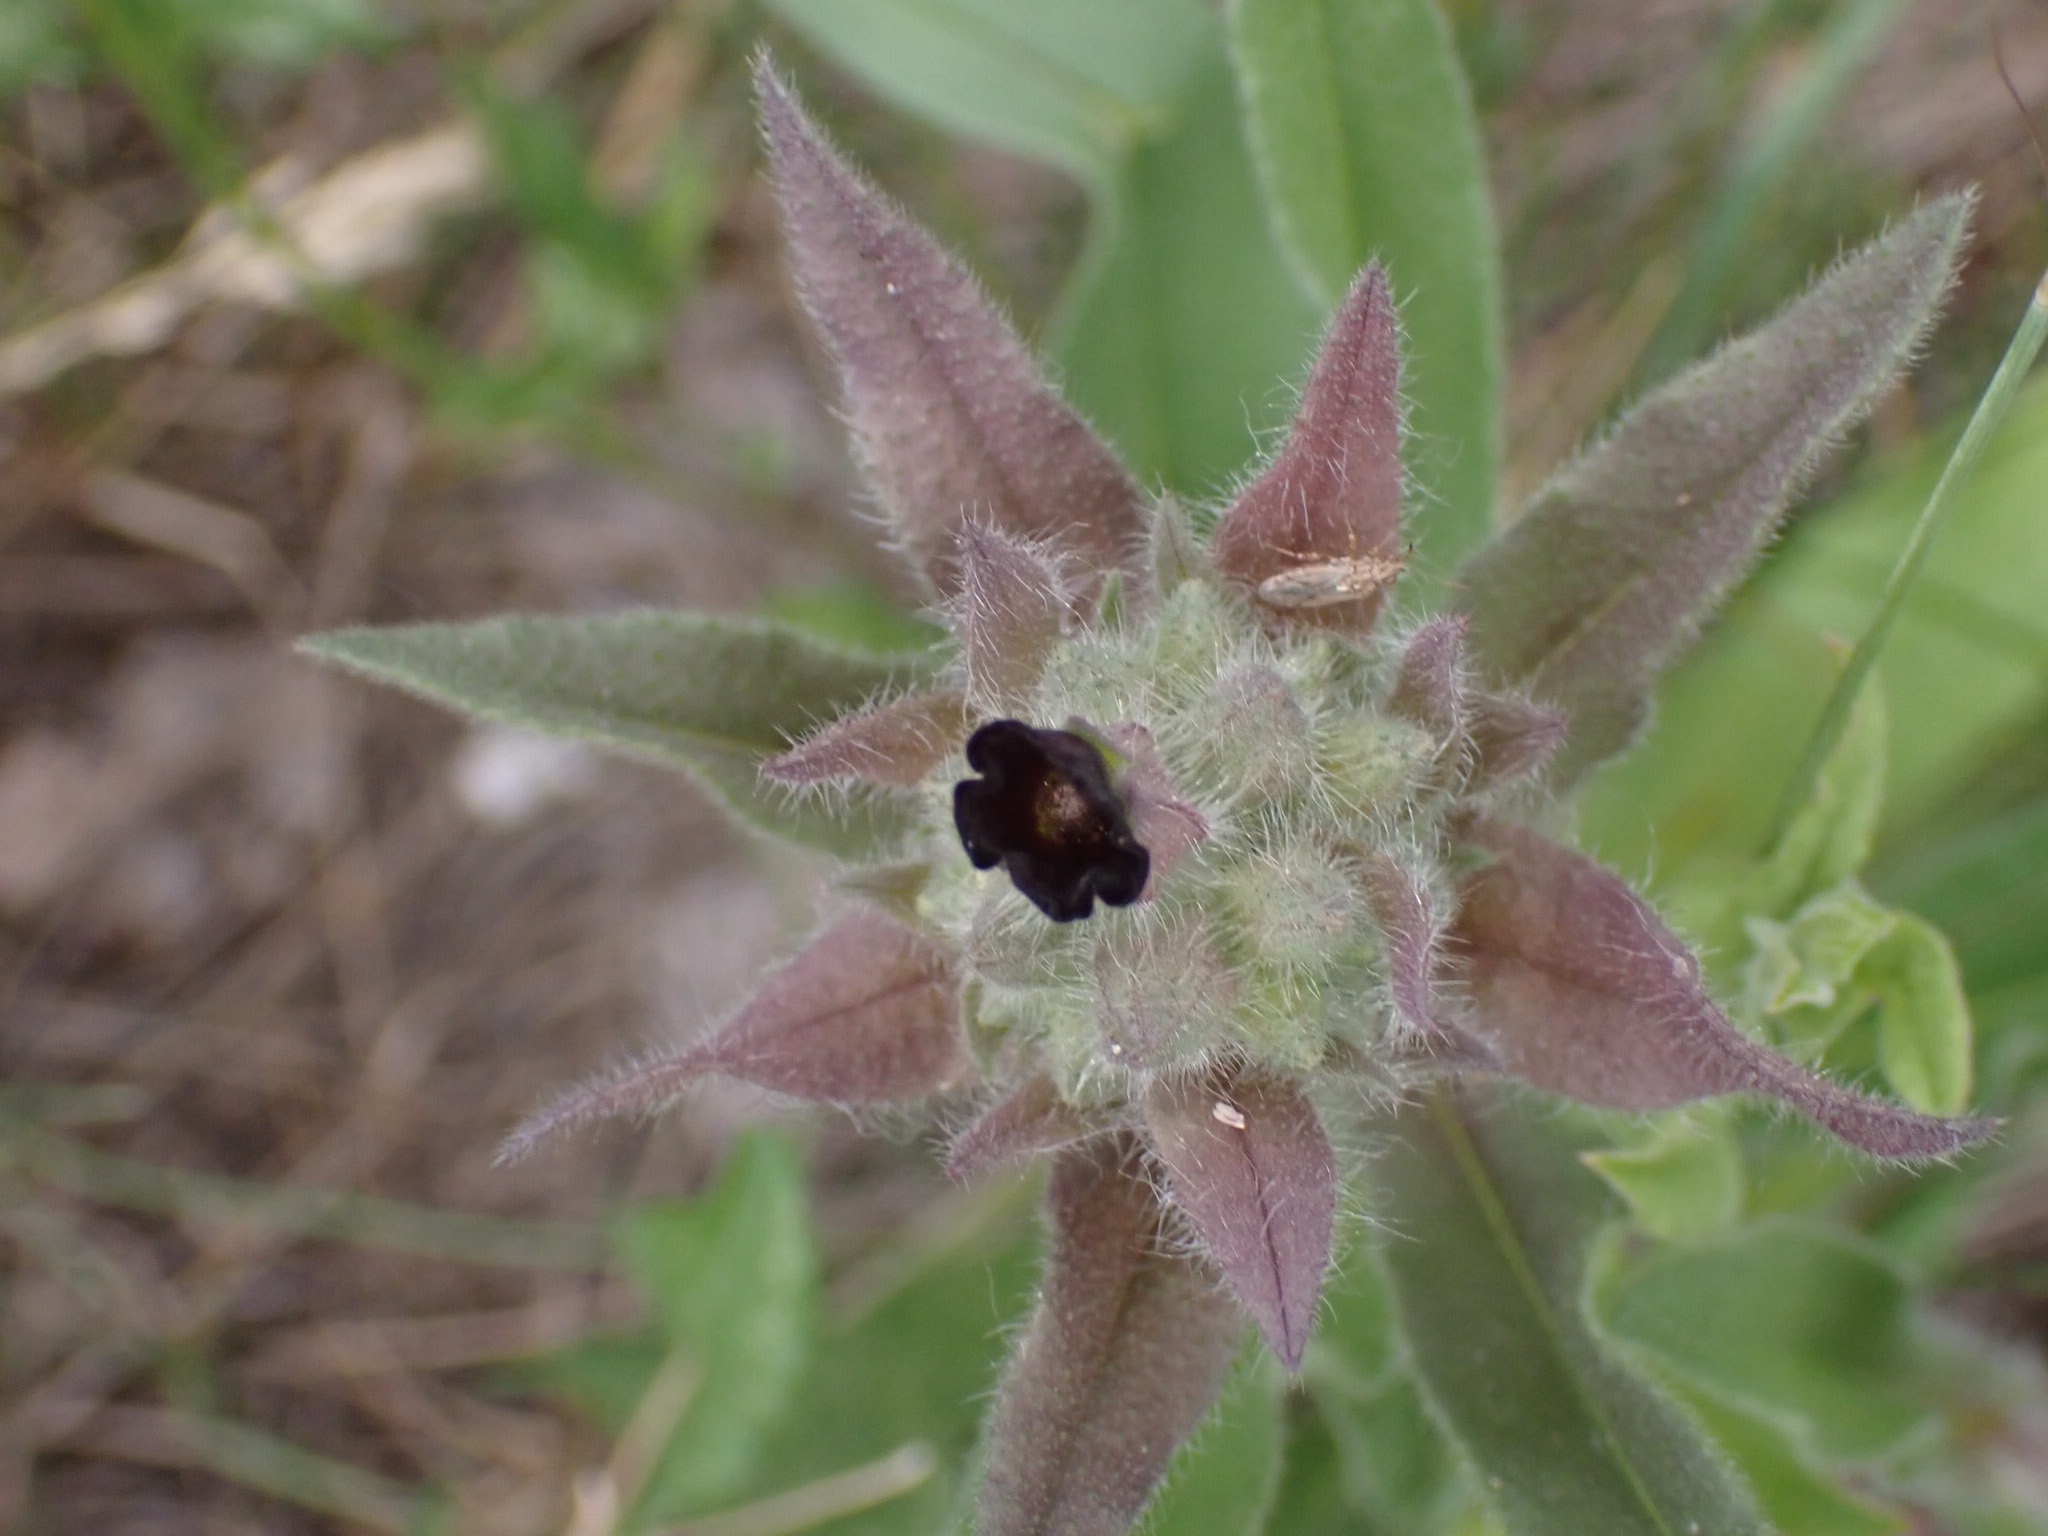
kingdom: Plantae
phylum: Tracheophyta
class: Magnoliopsida
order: Boraginales
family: Boraginaceae
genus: Nonea
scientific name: Nonea pulla
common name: Brown nonea
